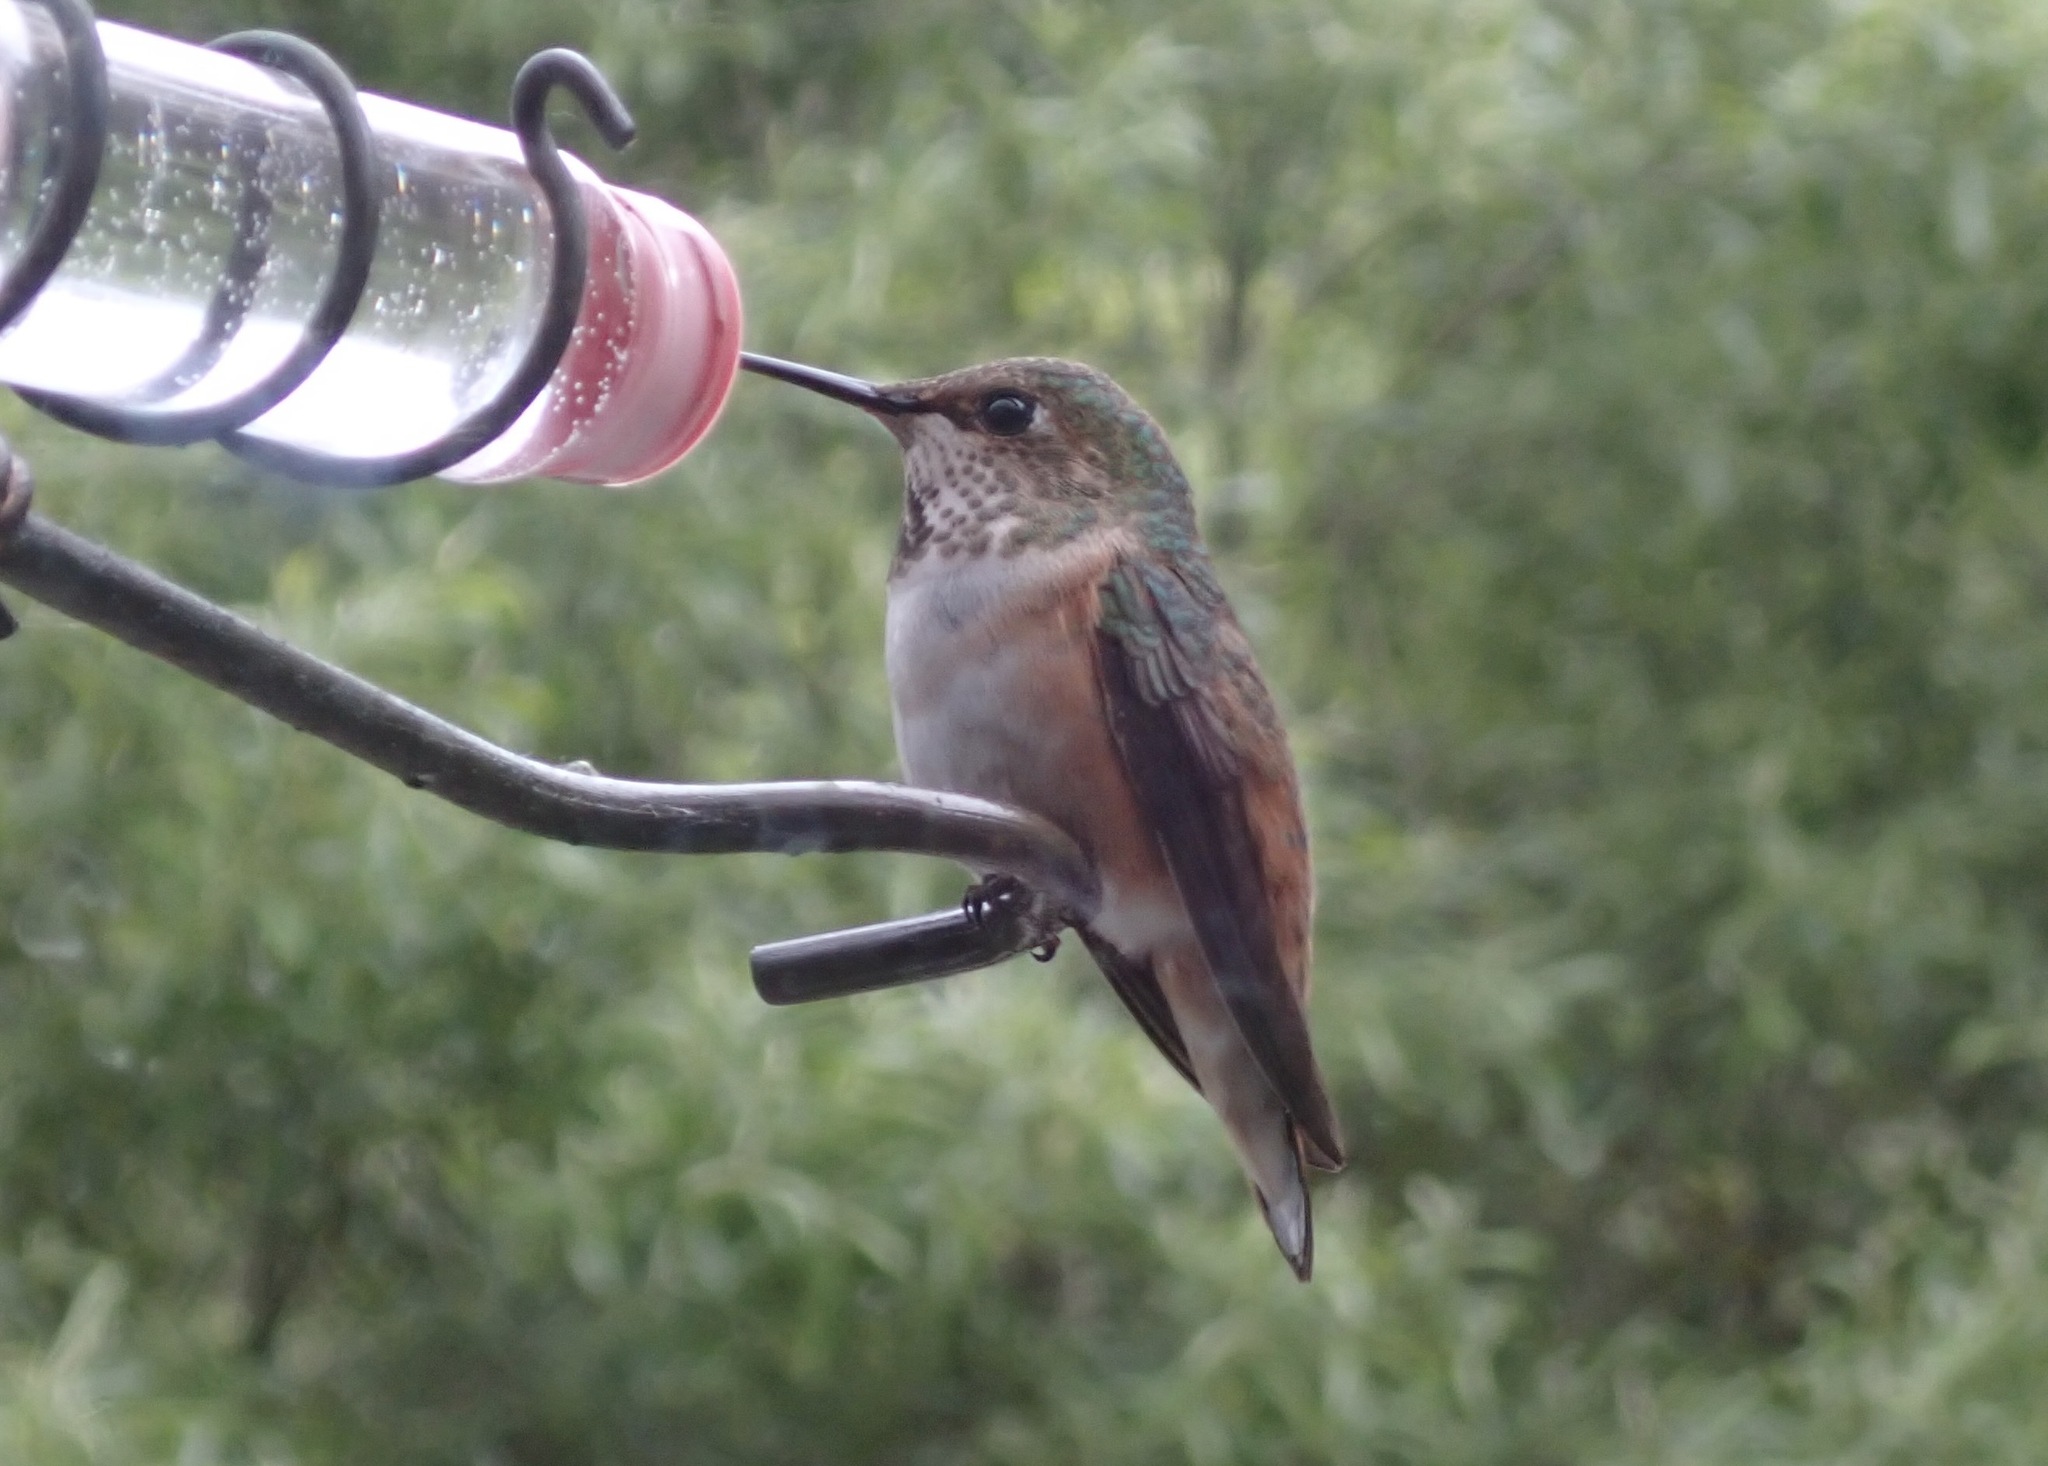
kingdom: Animalia
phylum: Chordata
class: Aves
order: Apodiformes
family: Trochilidae
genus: Selasphorus
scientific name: Selasphorus
